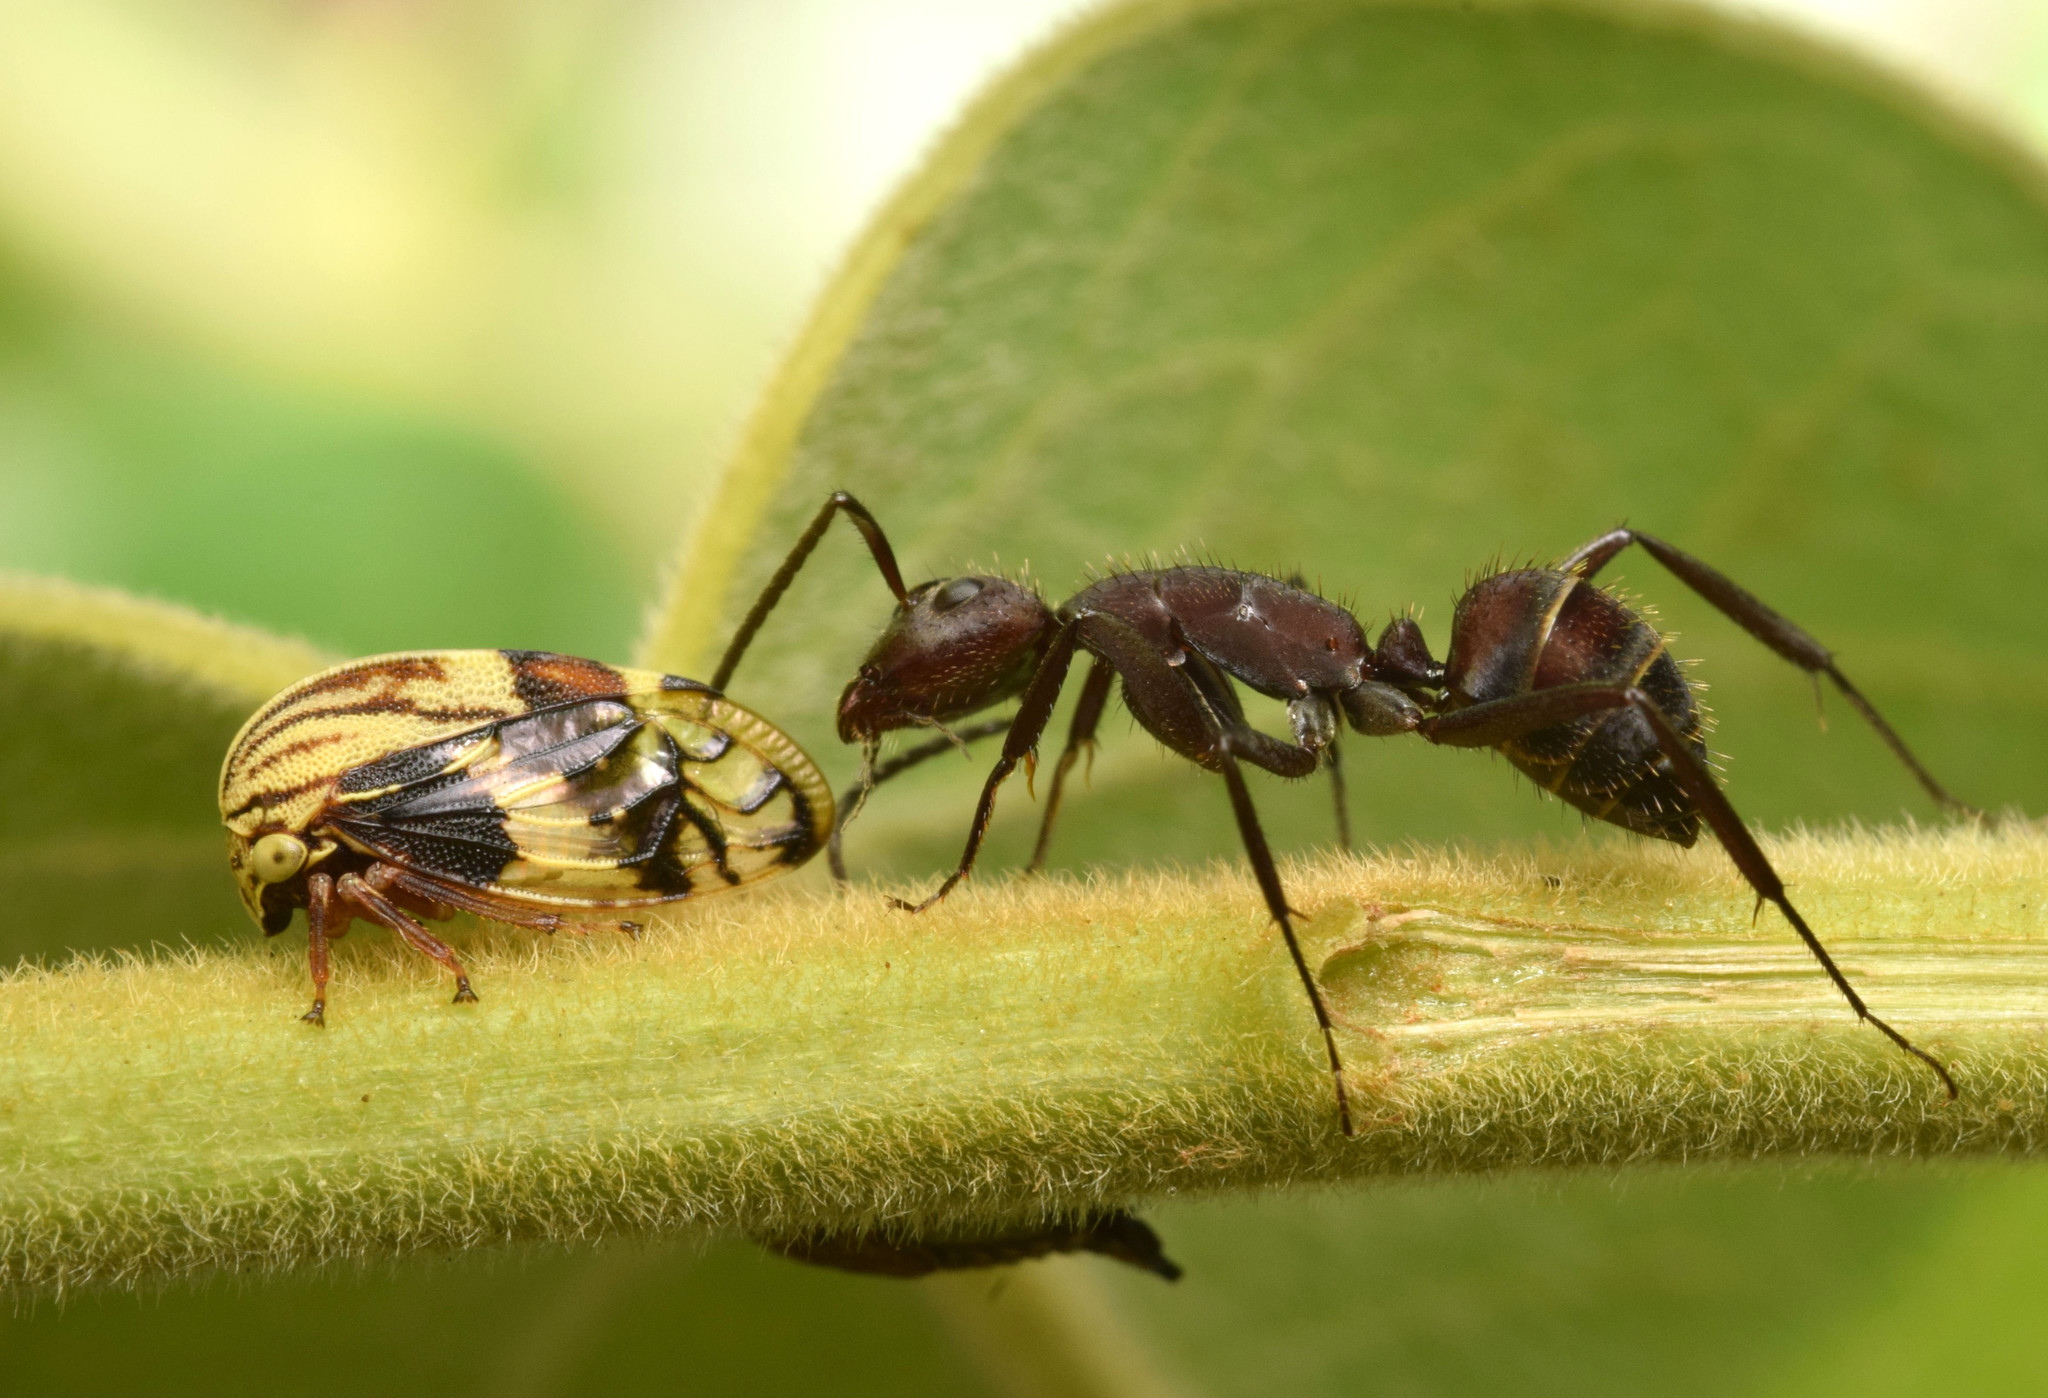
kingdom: Animalia
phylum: Arthropoda
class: Insecta
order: Hymenoptera
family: Formicidae
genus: Camponotus
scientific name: Camponotus leydigi
